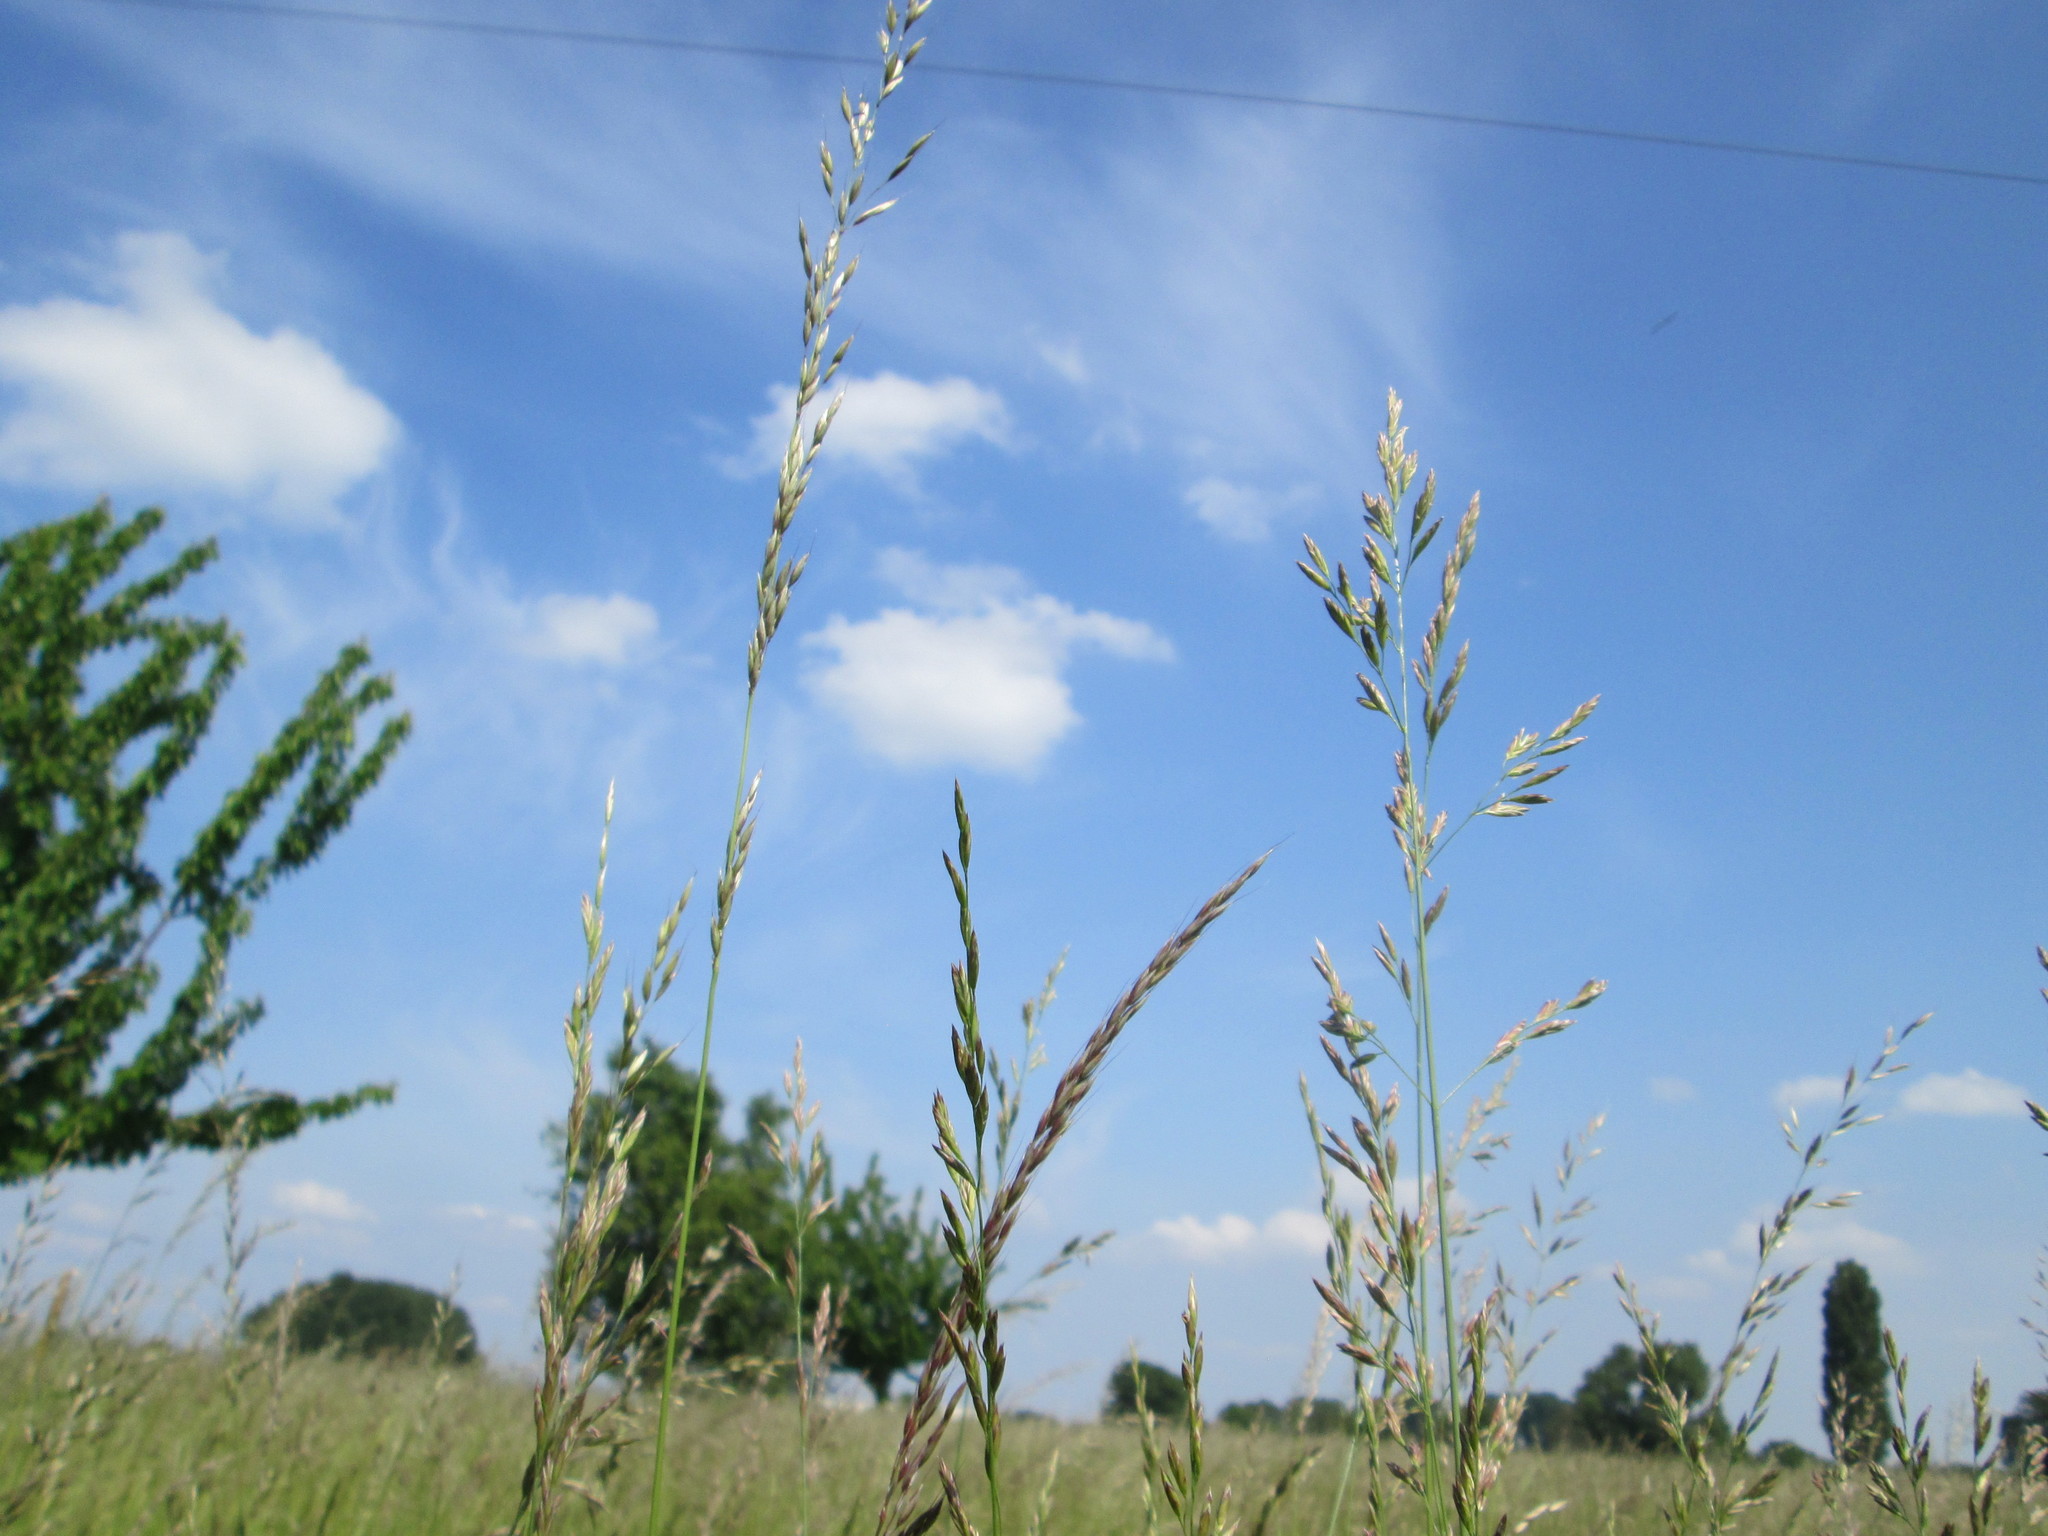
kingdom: Plantae
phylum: Tracheophyta
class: Liliopsida
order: Poales
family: Poaceae
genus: Arrhenatherum
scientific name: Arrhenatherum elatius
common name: Tall oatgrass
